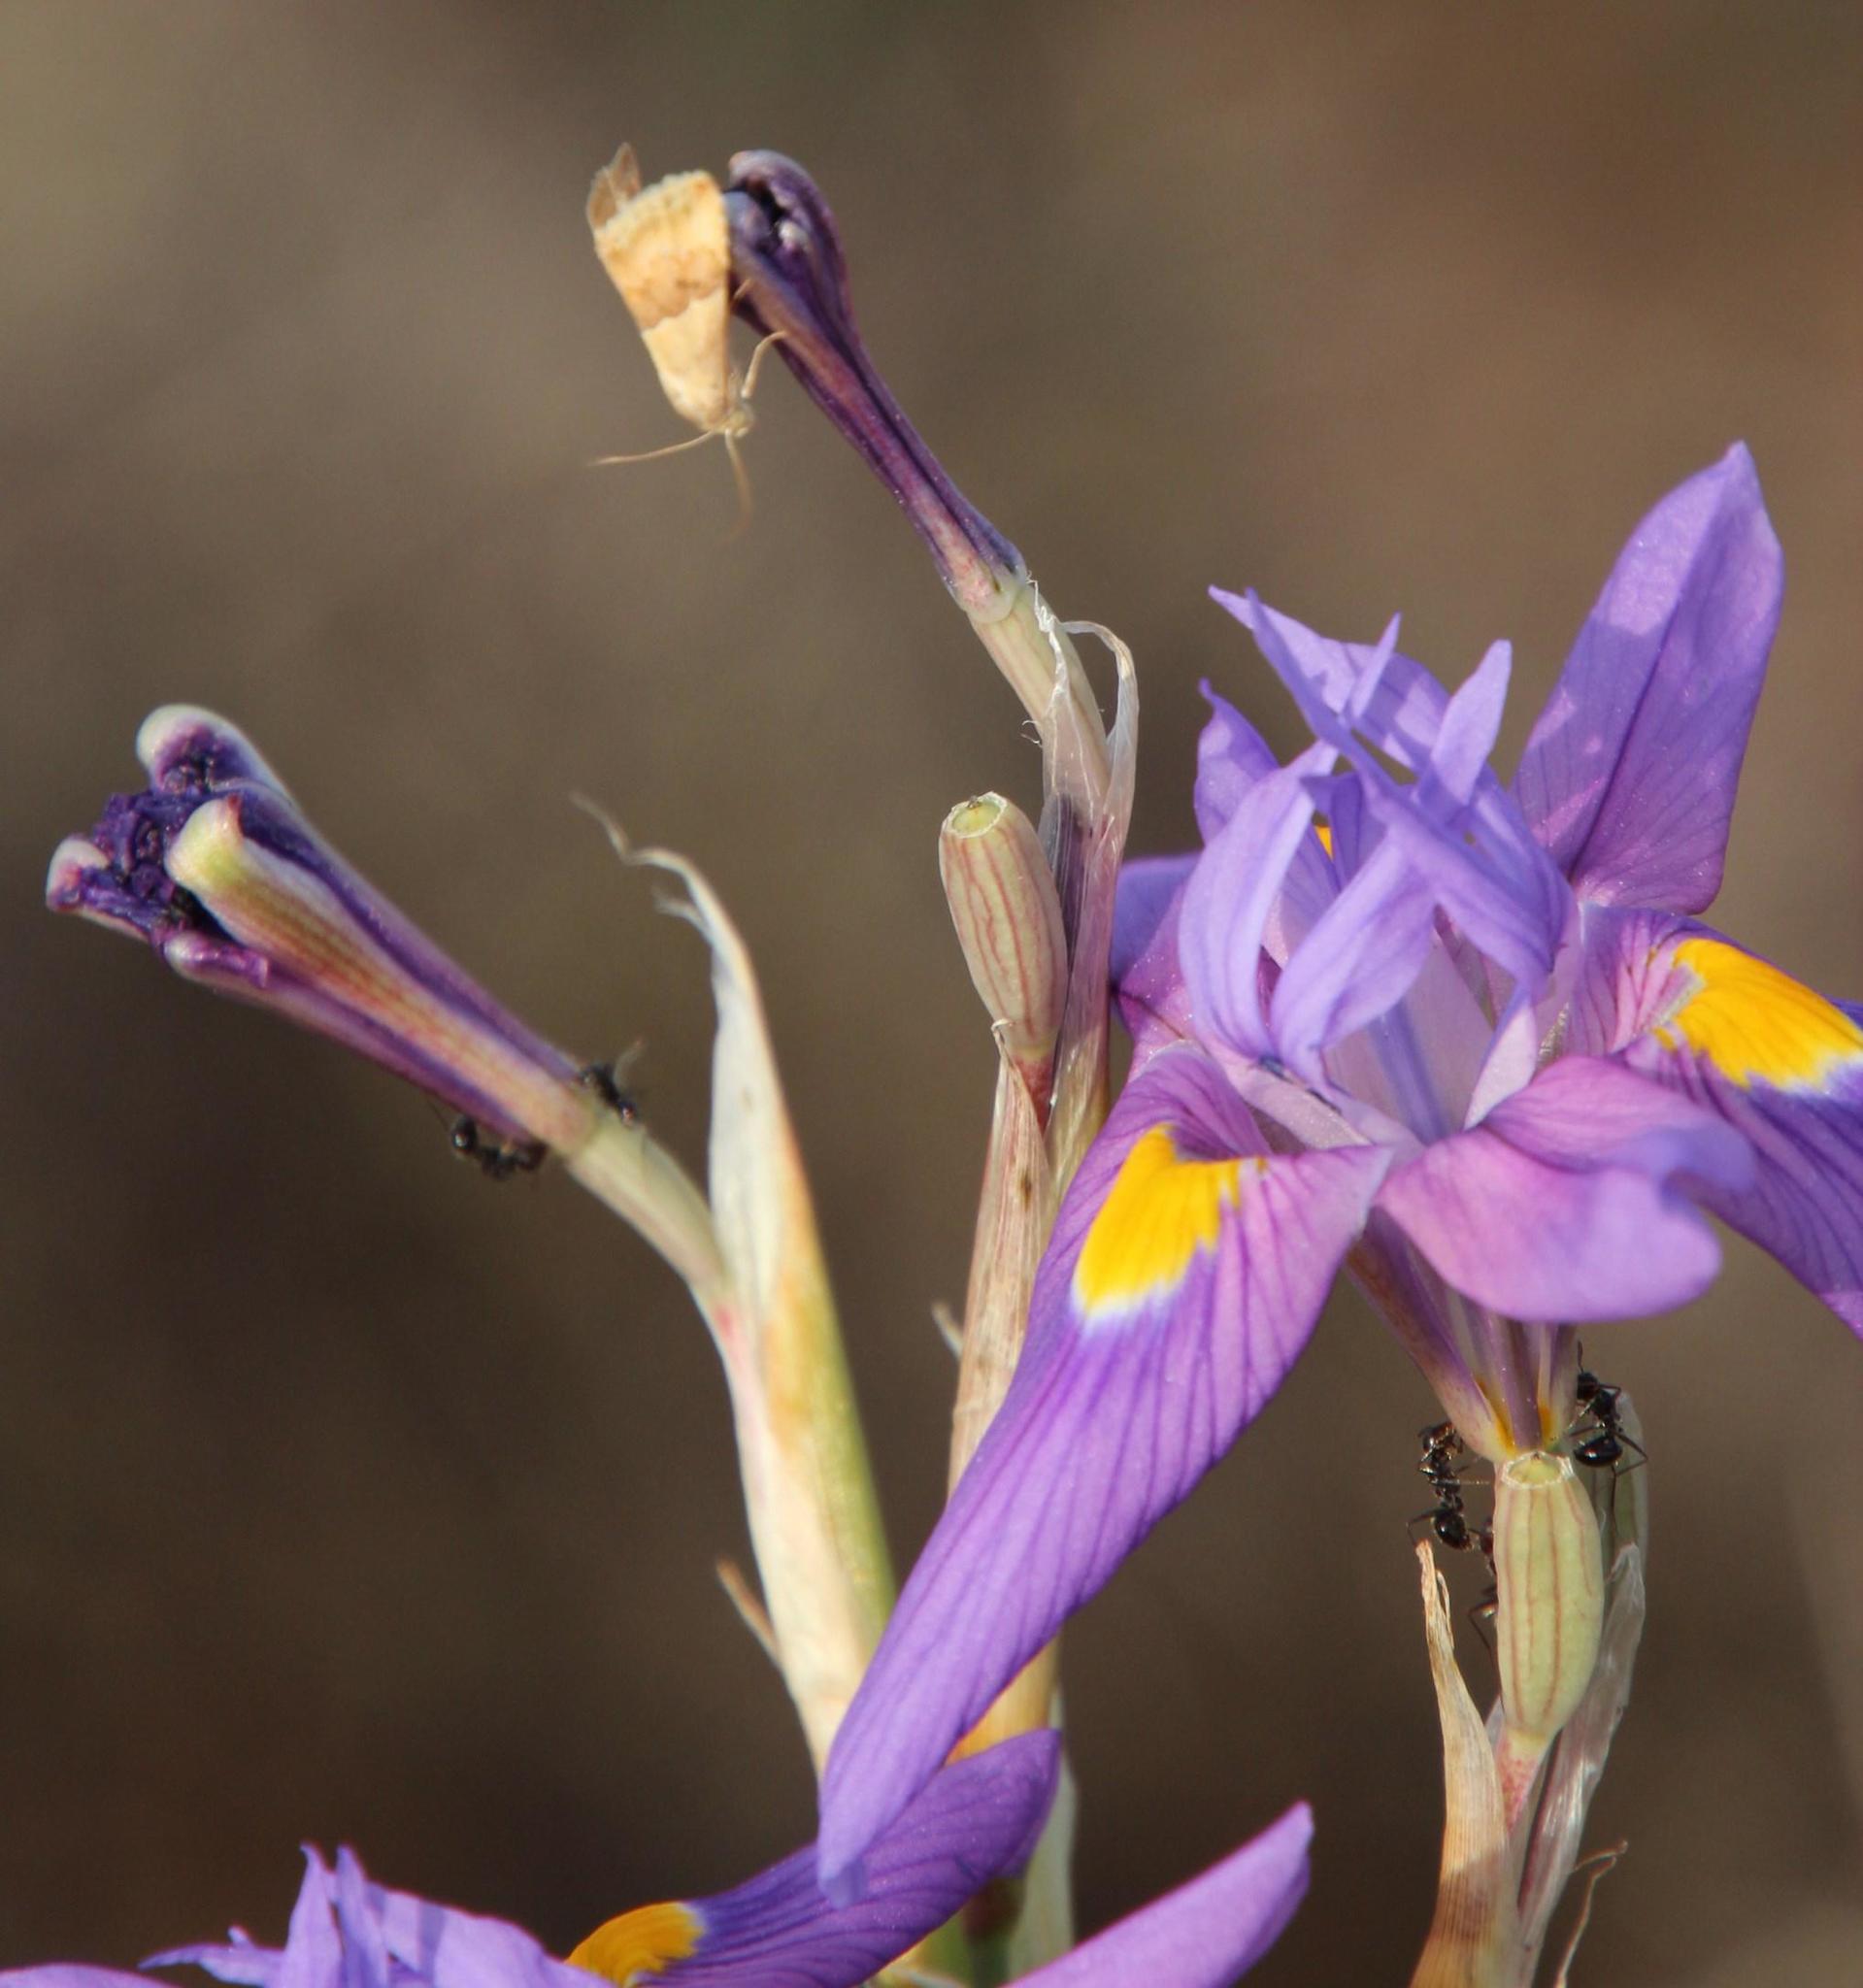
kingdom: Animalia
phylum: Arthropoda
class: Insecta
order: Hymenoptera
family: Formicidae
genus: Lepisiota
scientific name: Lepisiota capensis
